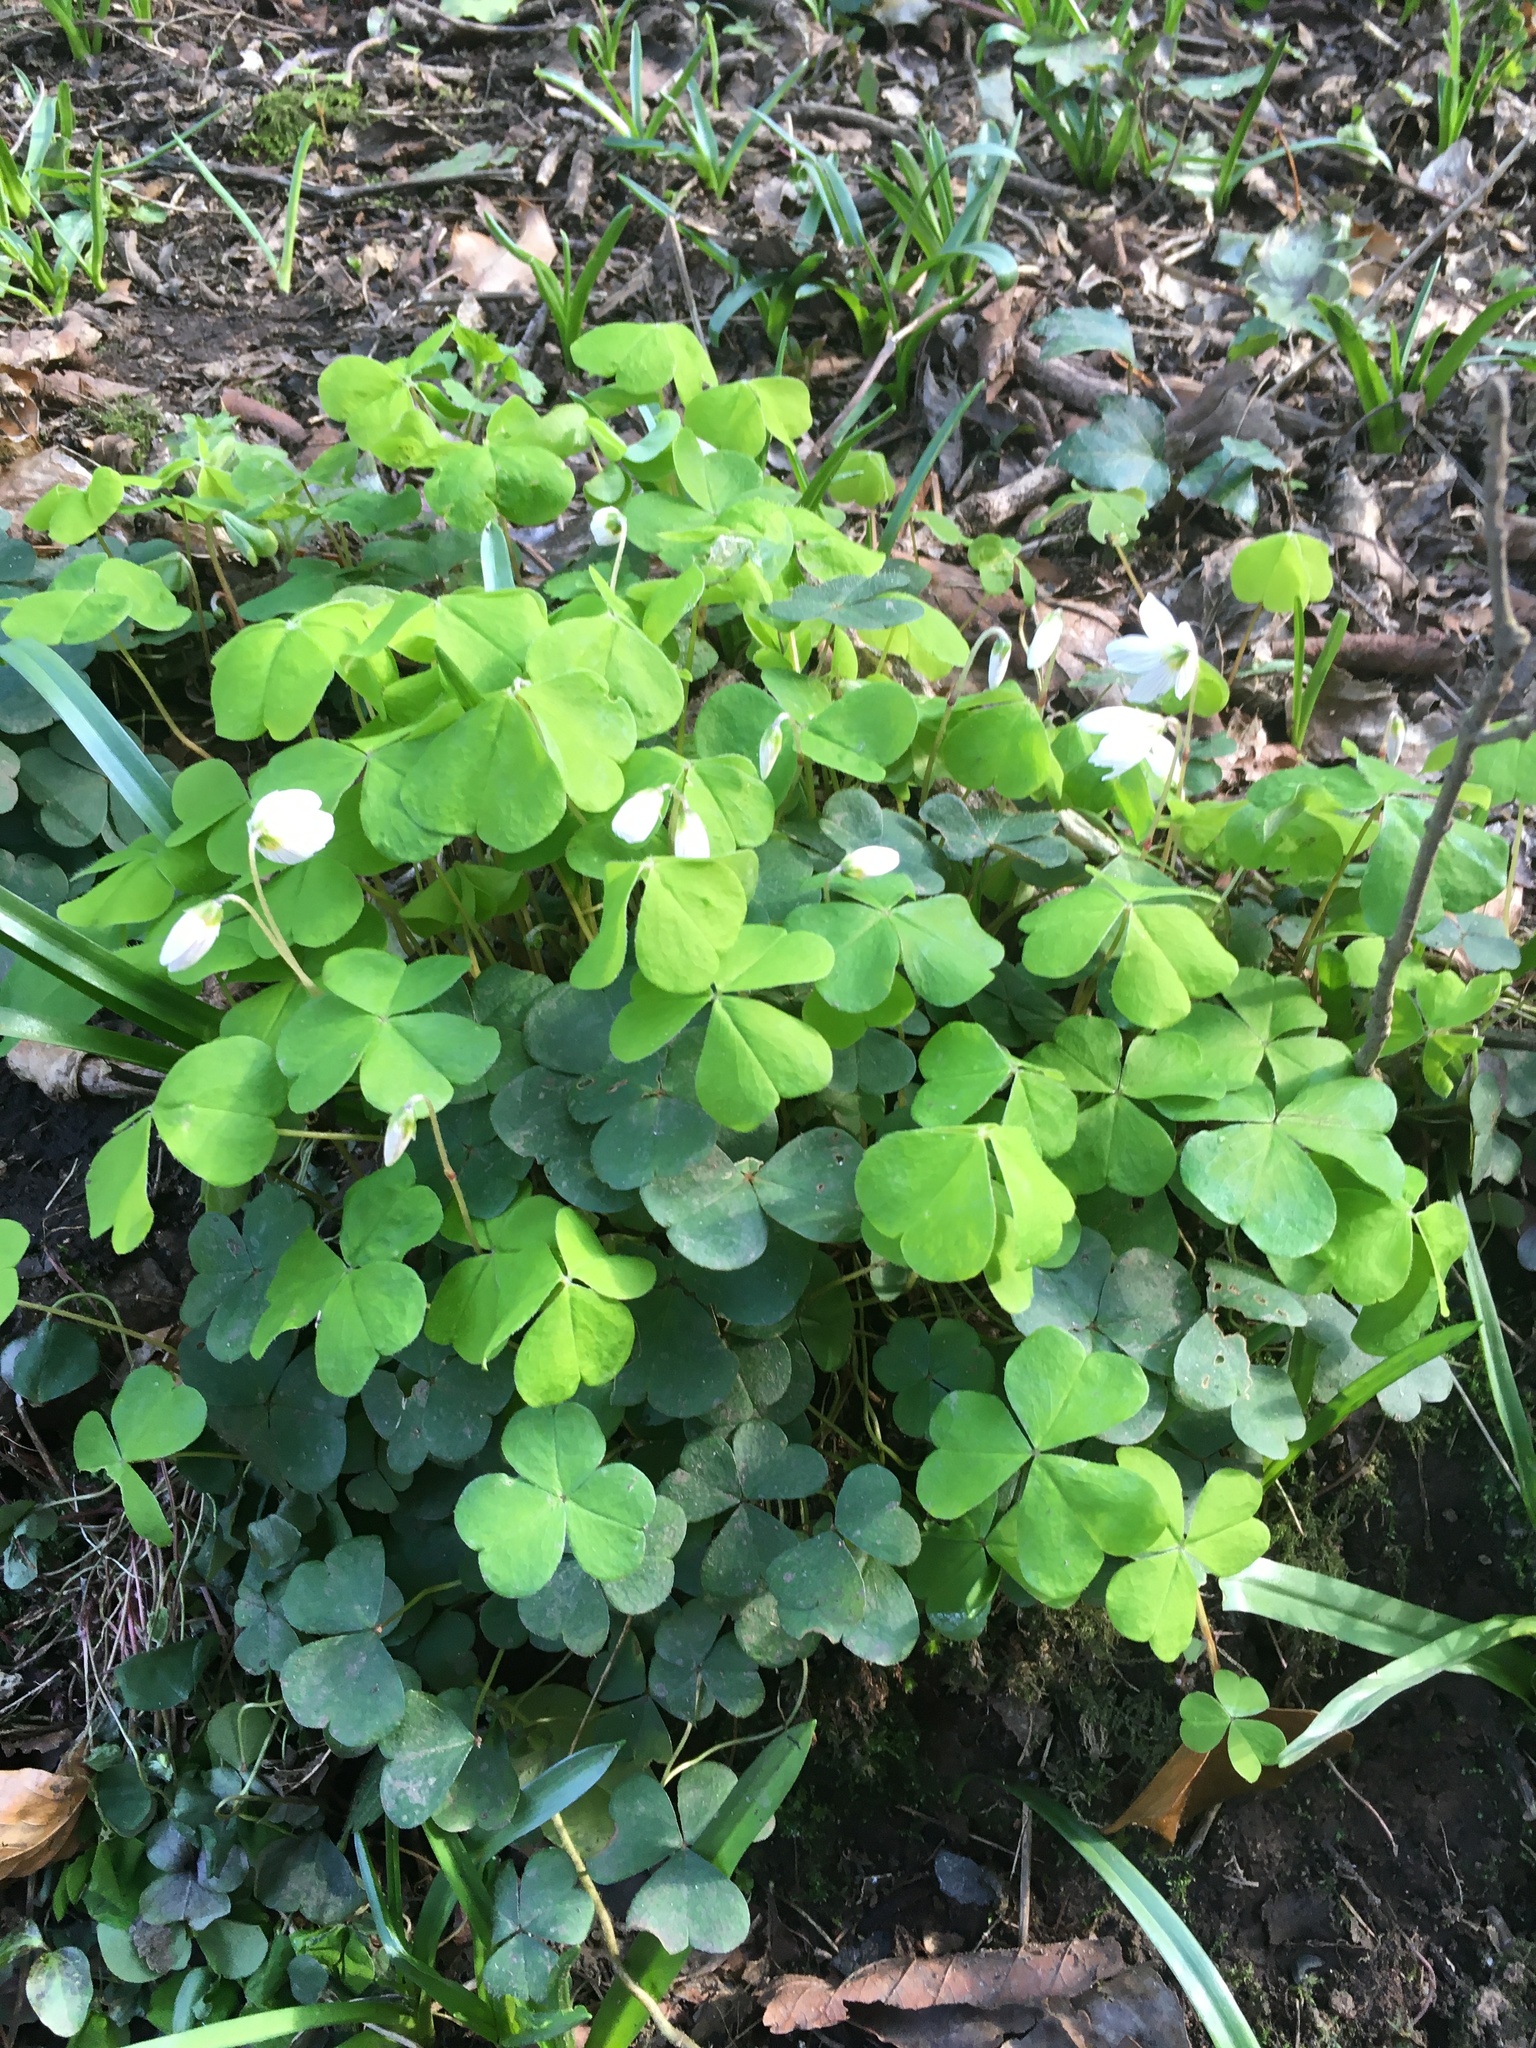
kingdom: Plantae
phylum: Tracheophyta
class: Magnoliopsida
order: Oxalidales
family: Oxalidaceae
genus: Oxalis
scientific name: Oxalis acetosella
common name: Wood-sorrel
